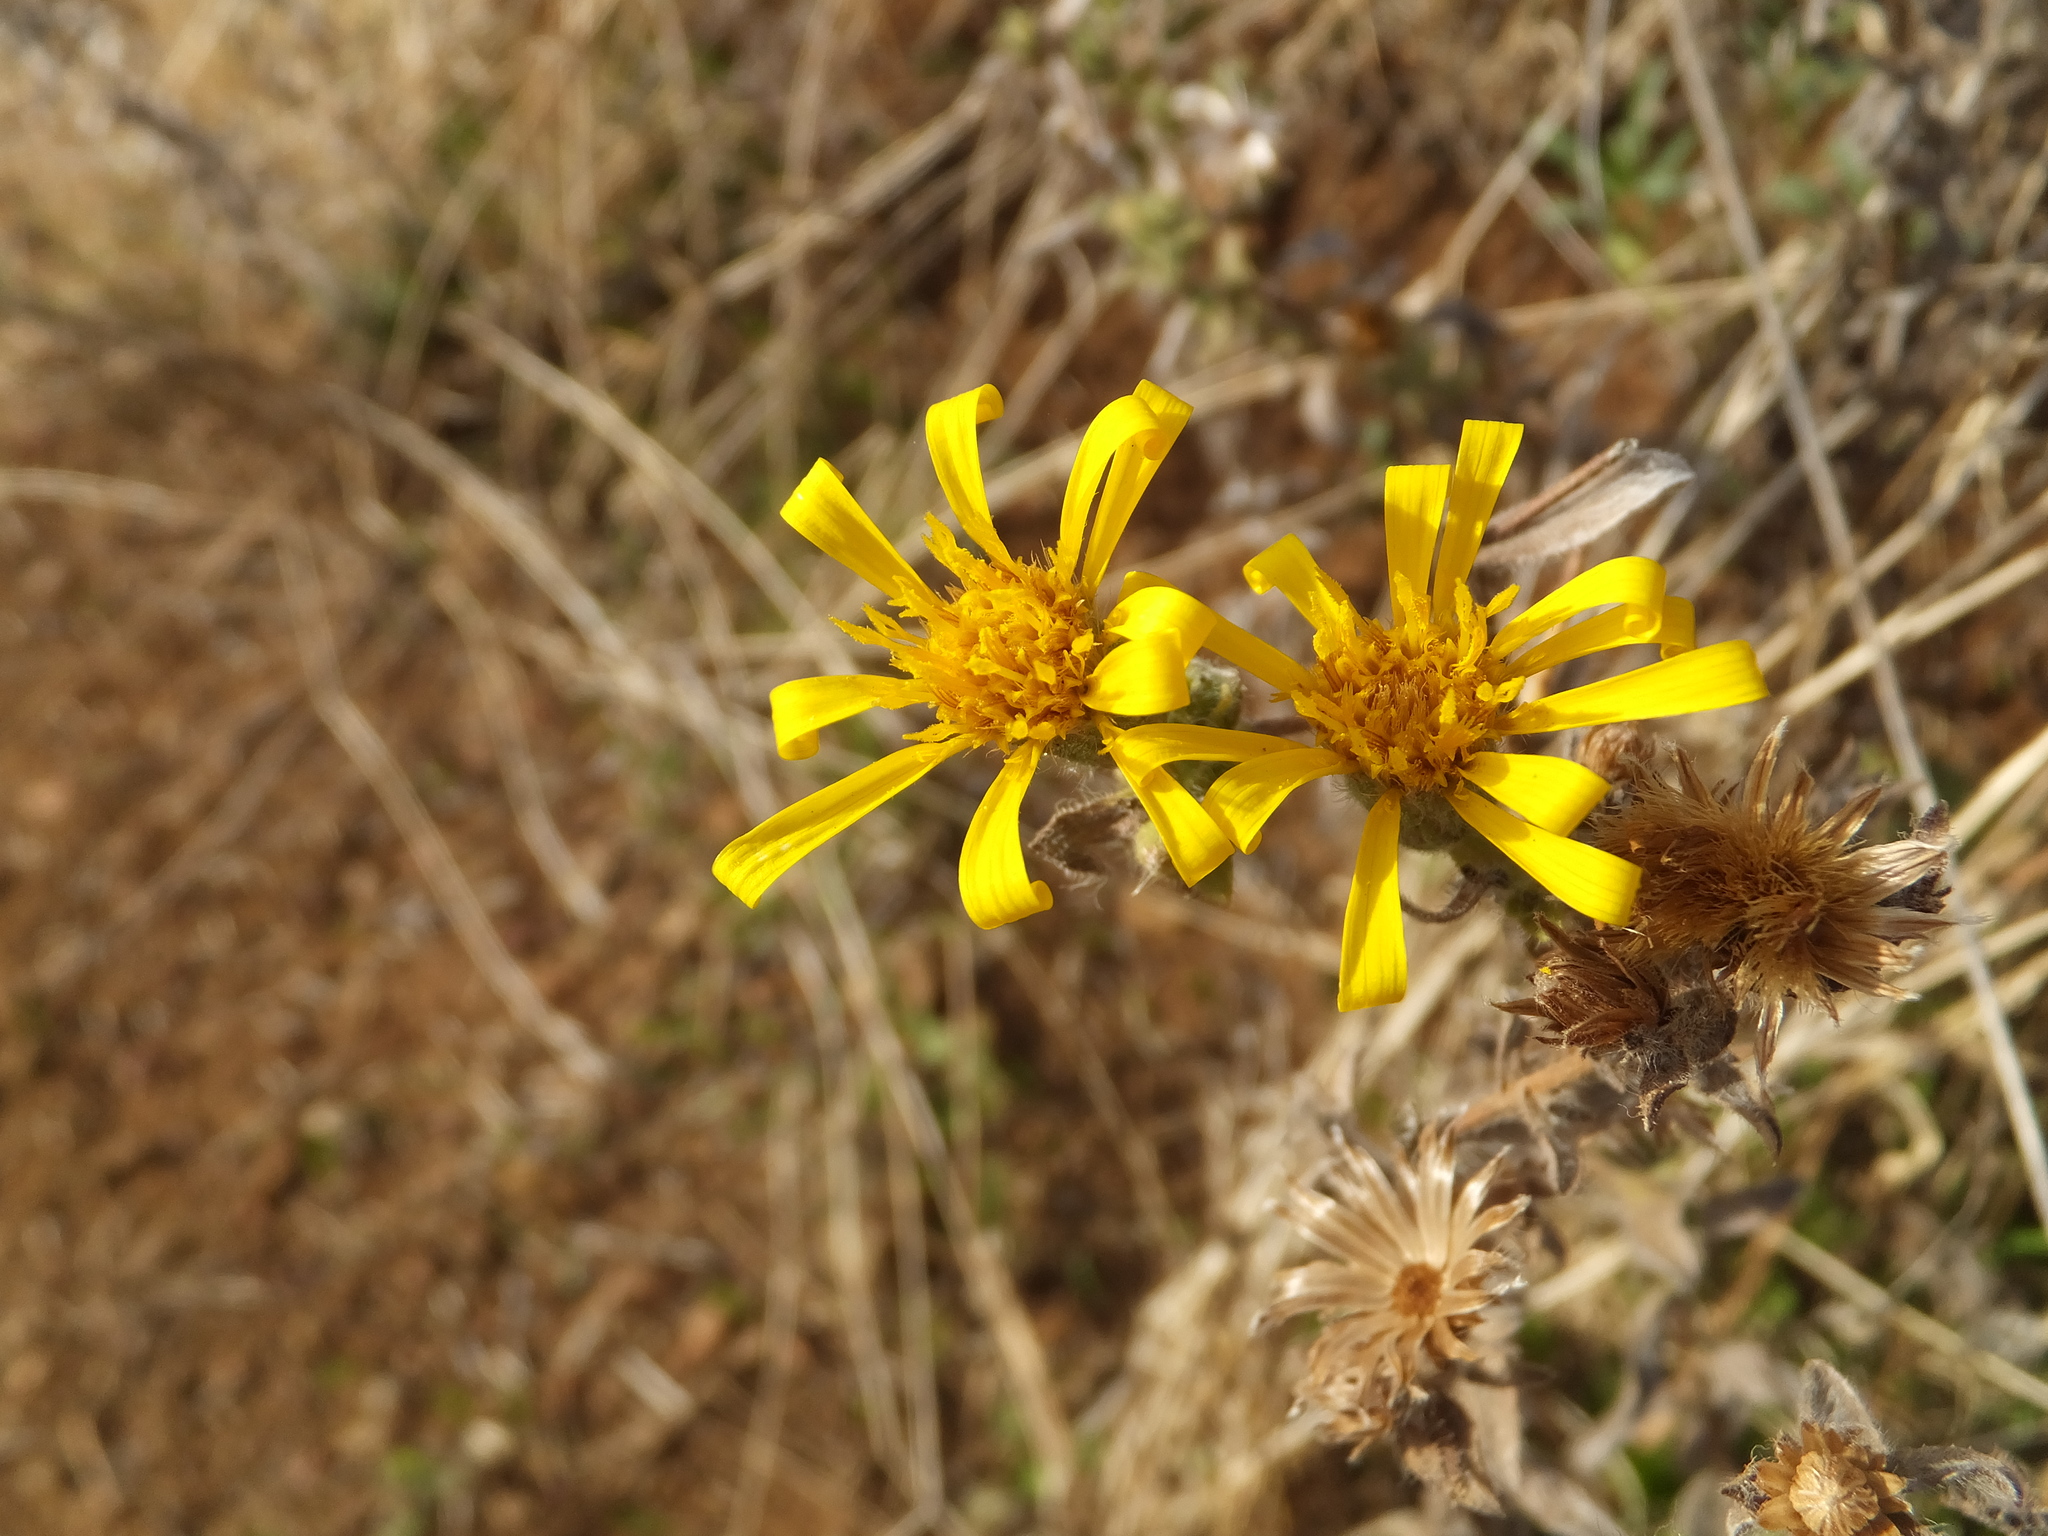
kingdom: Plantae
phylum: Tracheophyta
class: Magnoliopsida
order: Asterales
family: Asteraceae
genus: Heterotheca
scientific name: Heterotheca sessiliflora
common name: Sessile-flower golden-aster
